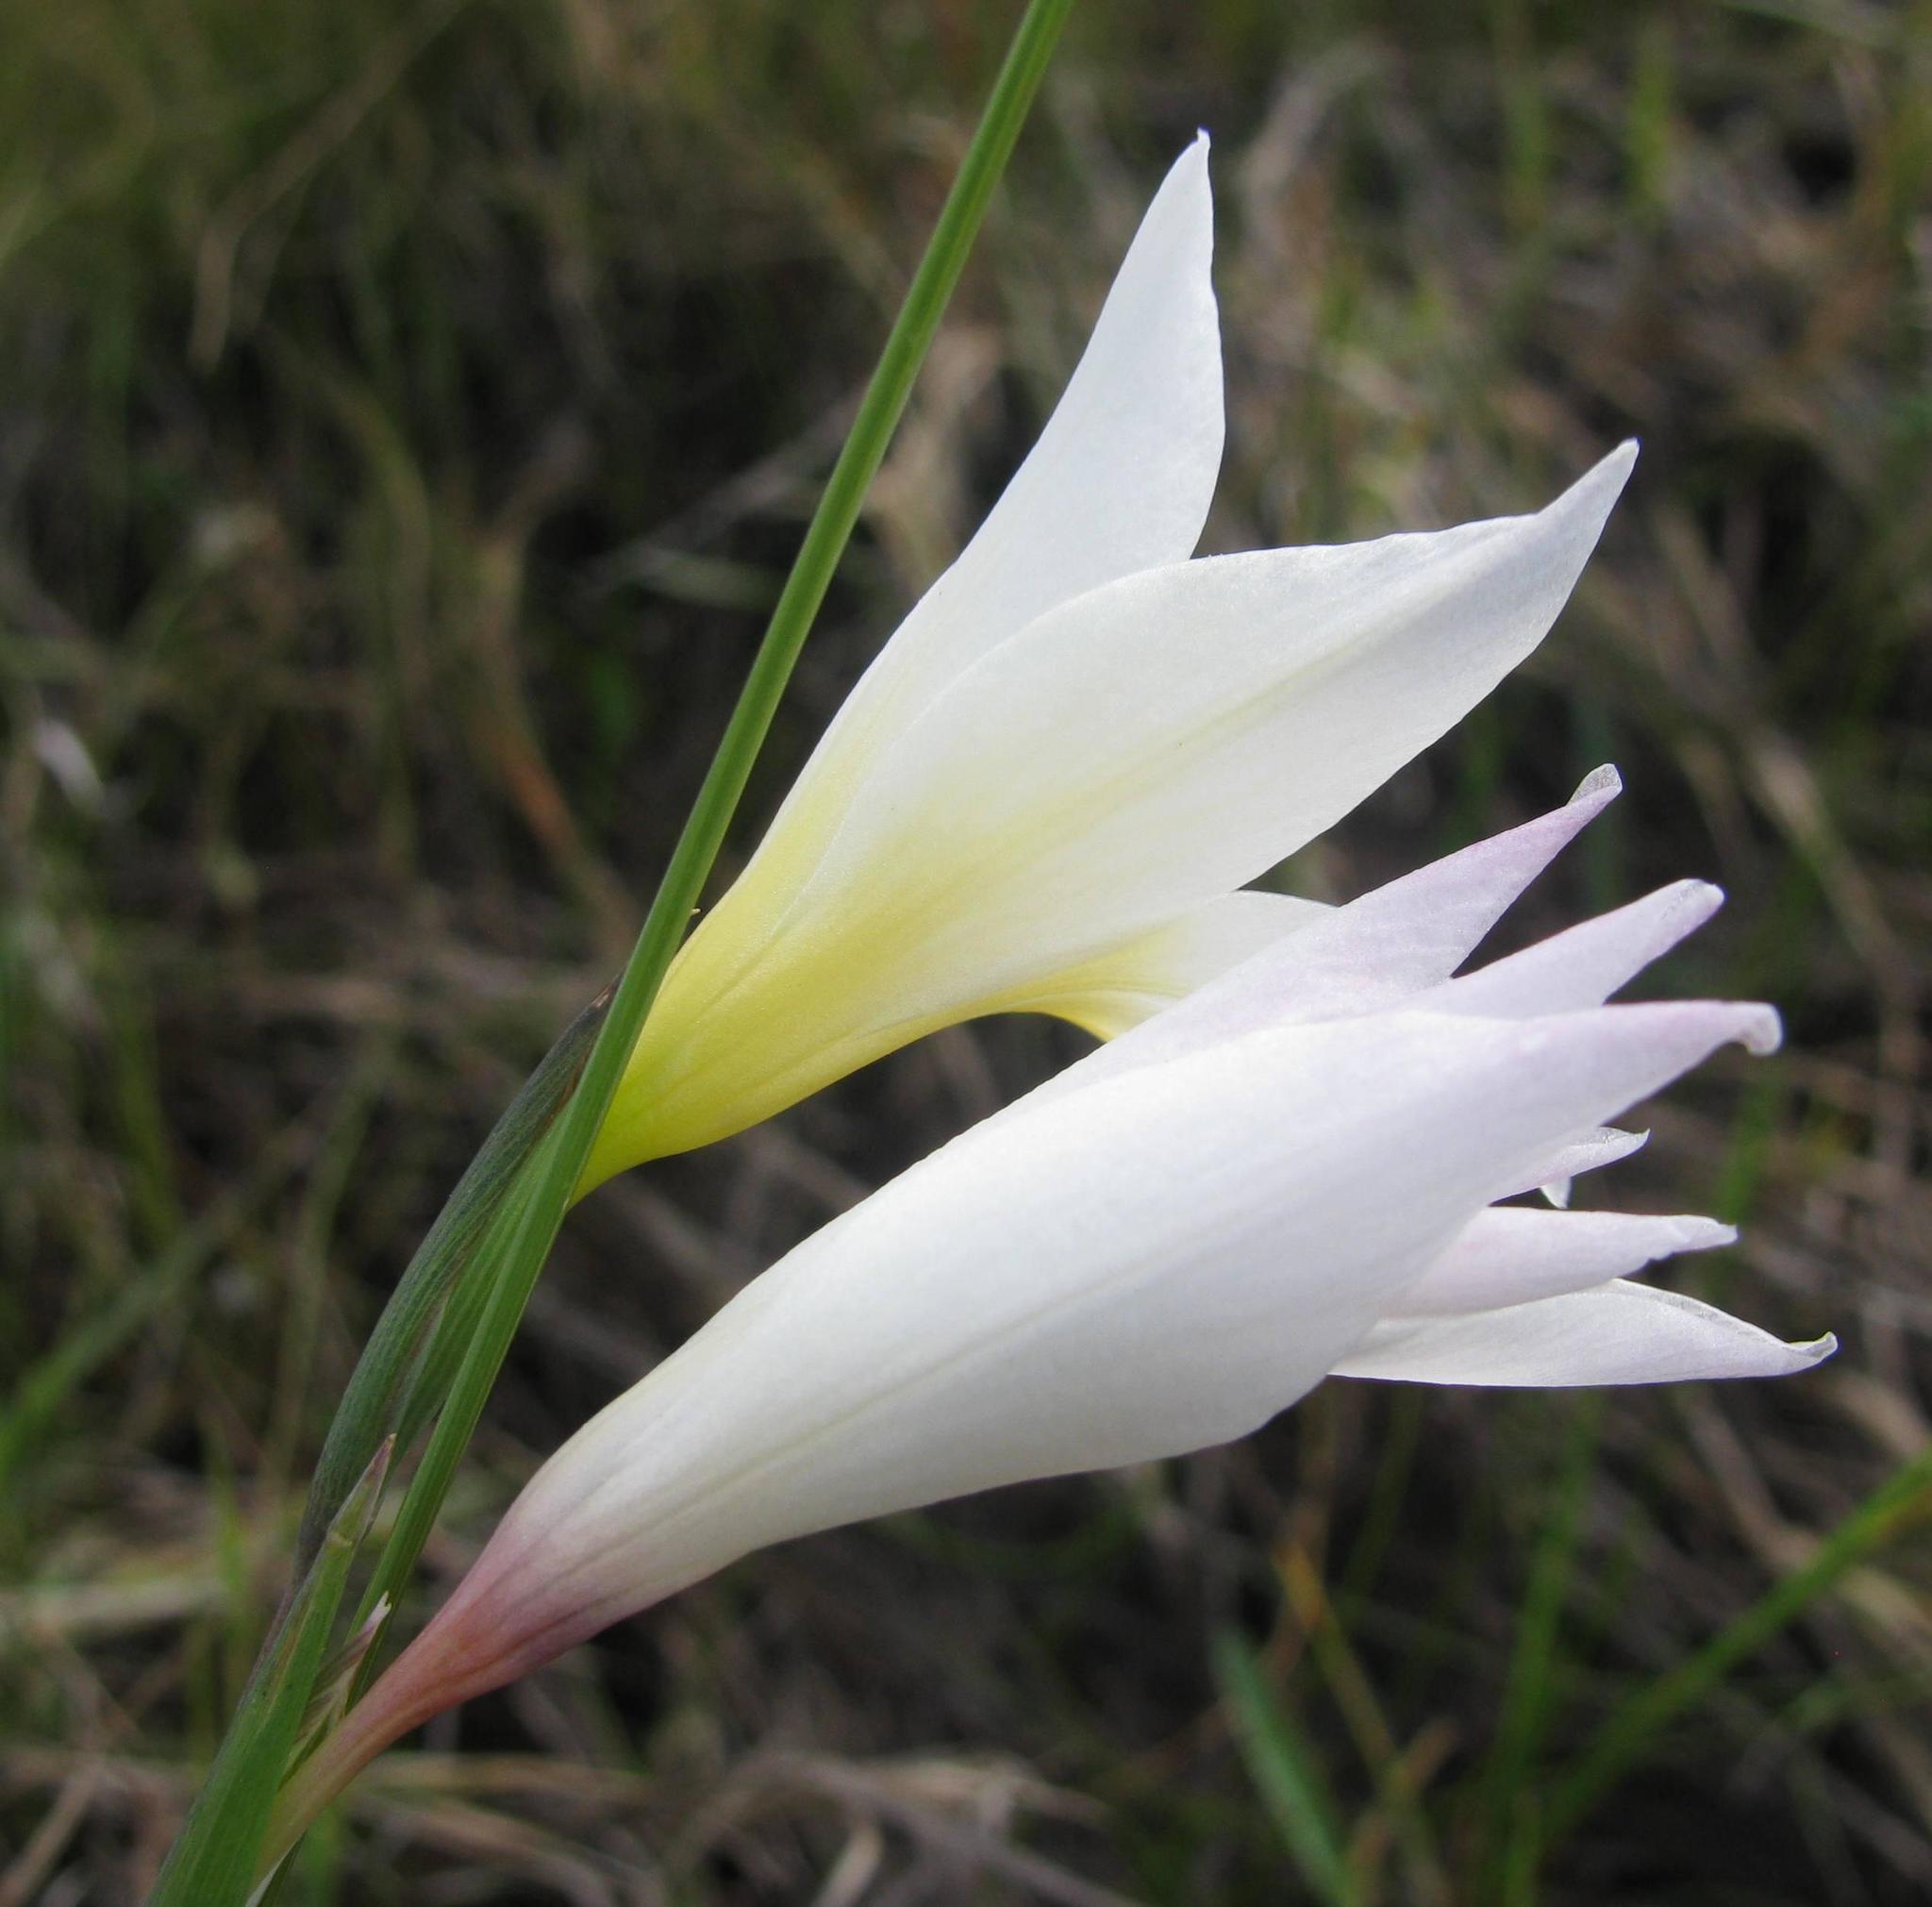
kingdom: Plantae
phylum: Tracheophyta
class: Liliopsida
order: Asparagales
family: Iridaceae
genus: Gladiolus
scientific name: Gladiolus trichonemifolius
